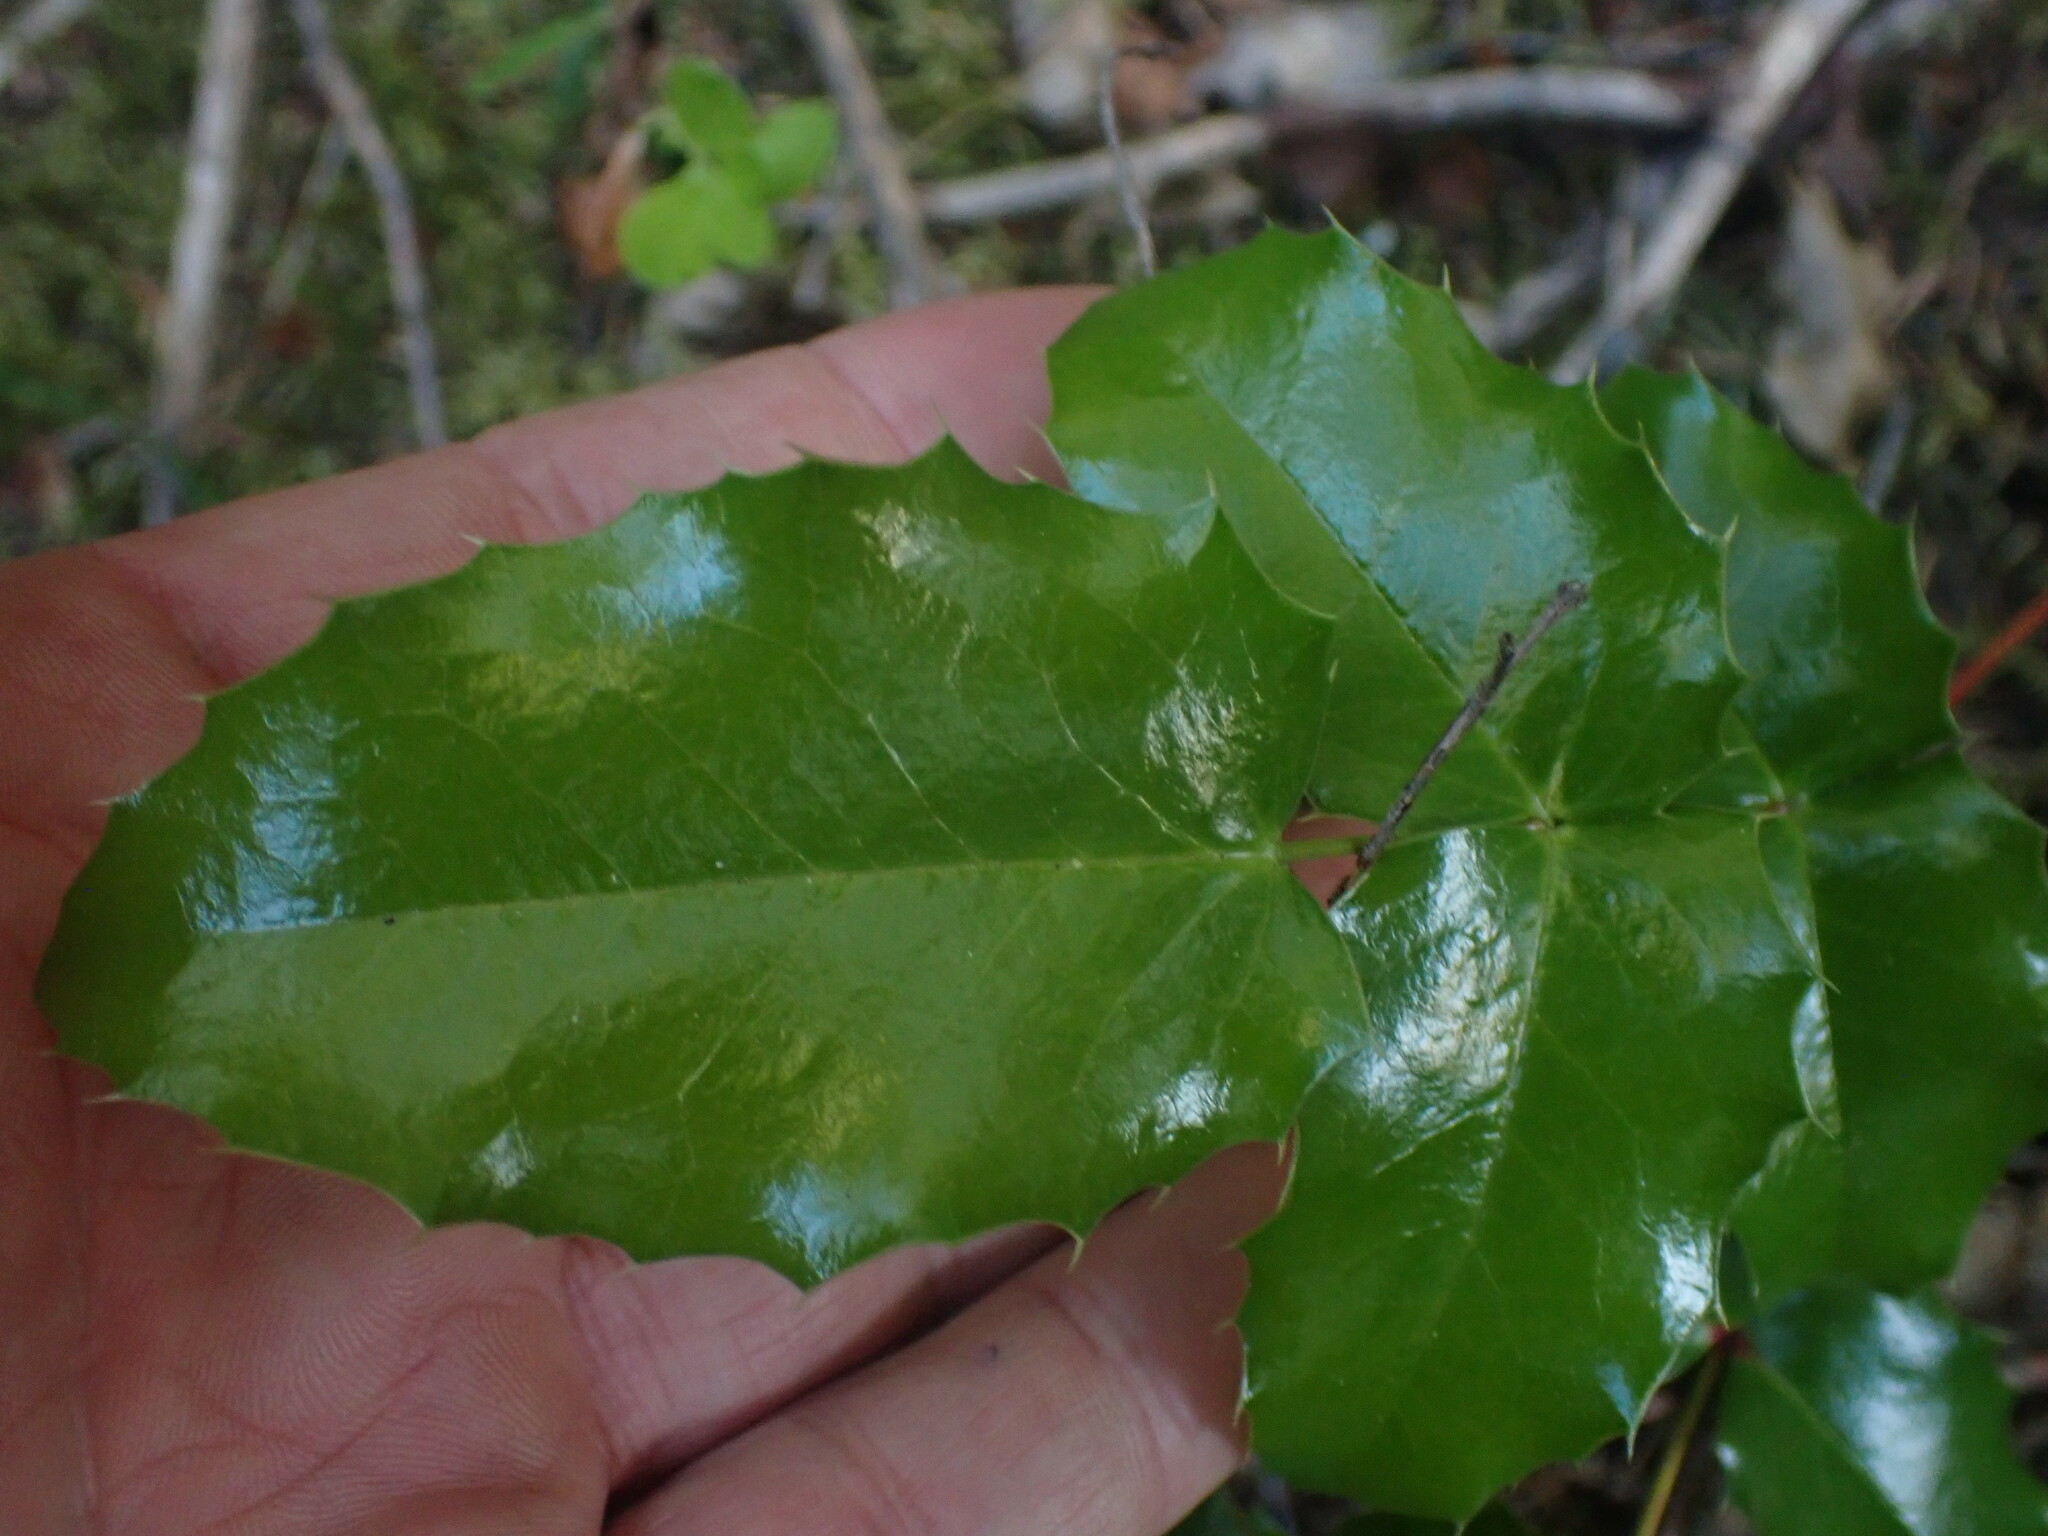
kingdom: Plantae
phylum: Tracheophyta
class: Magnoliopsida
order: Ranunculales
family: Berberidaceae
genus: Mahonia
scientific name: Mahonia aquifolium
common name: Oregon-grape
